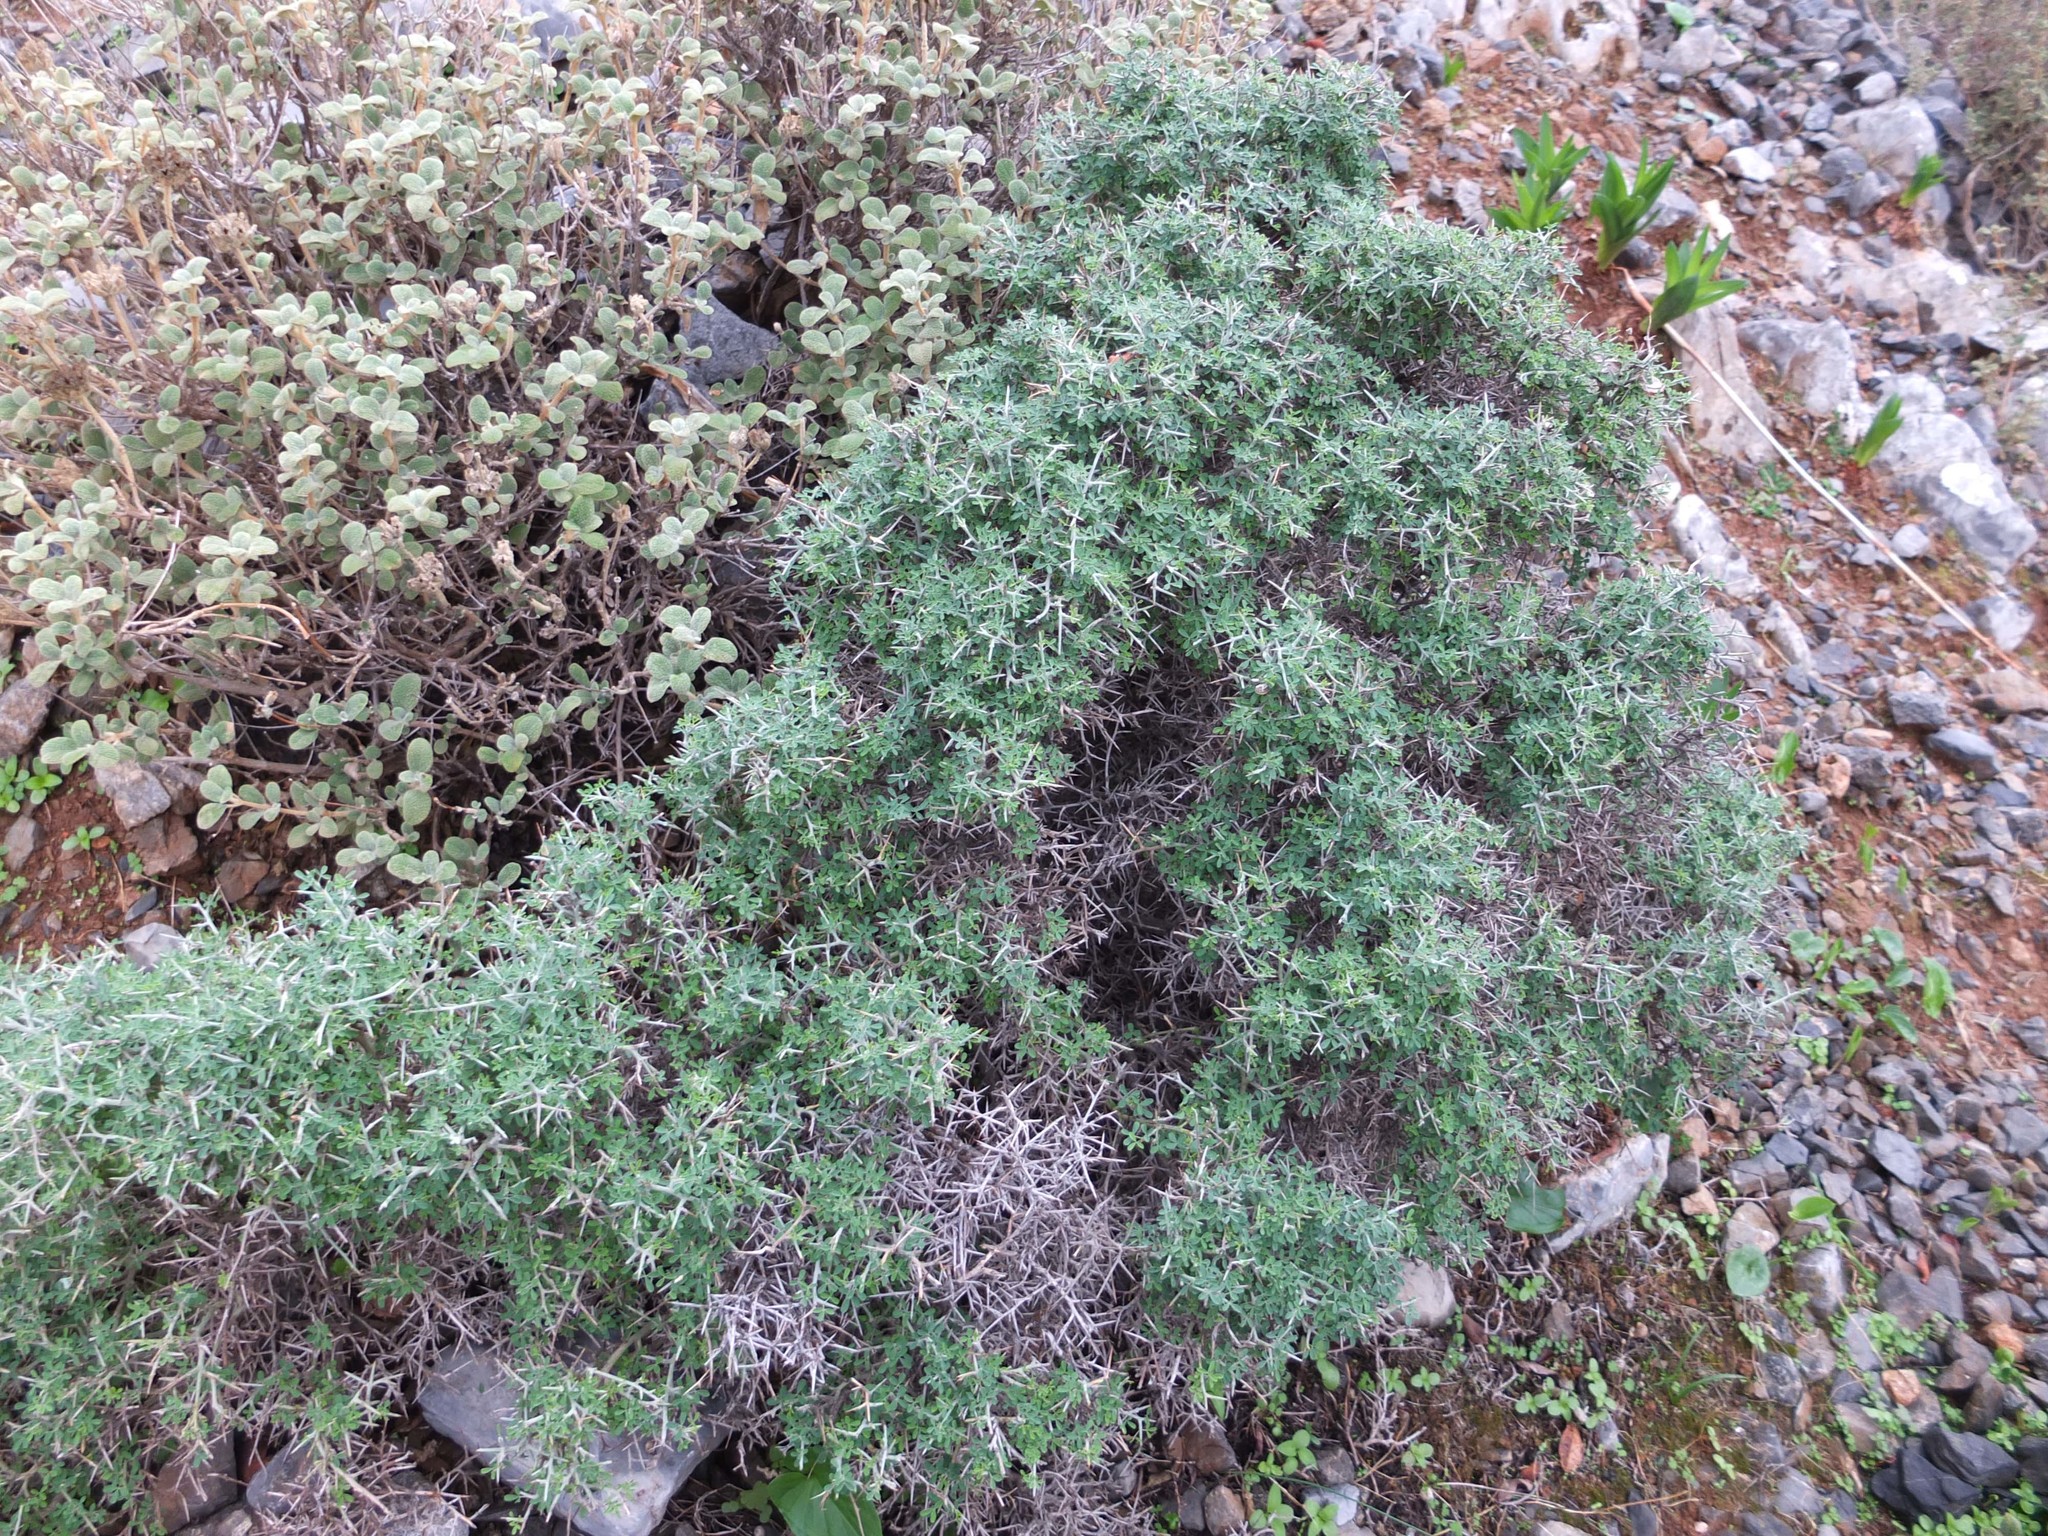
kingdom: Plantae
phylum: Tracheophyta
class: Magnoliopsida
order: Fabales
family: Fabaceae
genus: Calicotome
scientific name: Calicotome villosa
